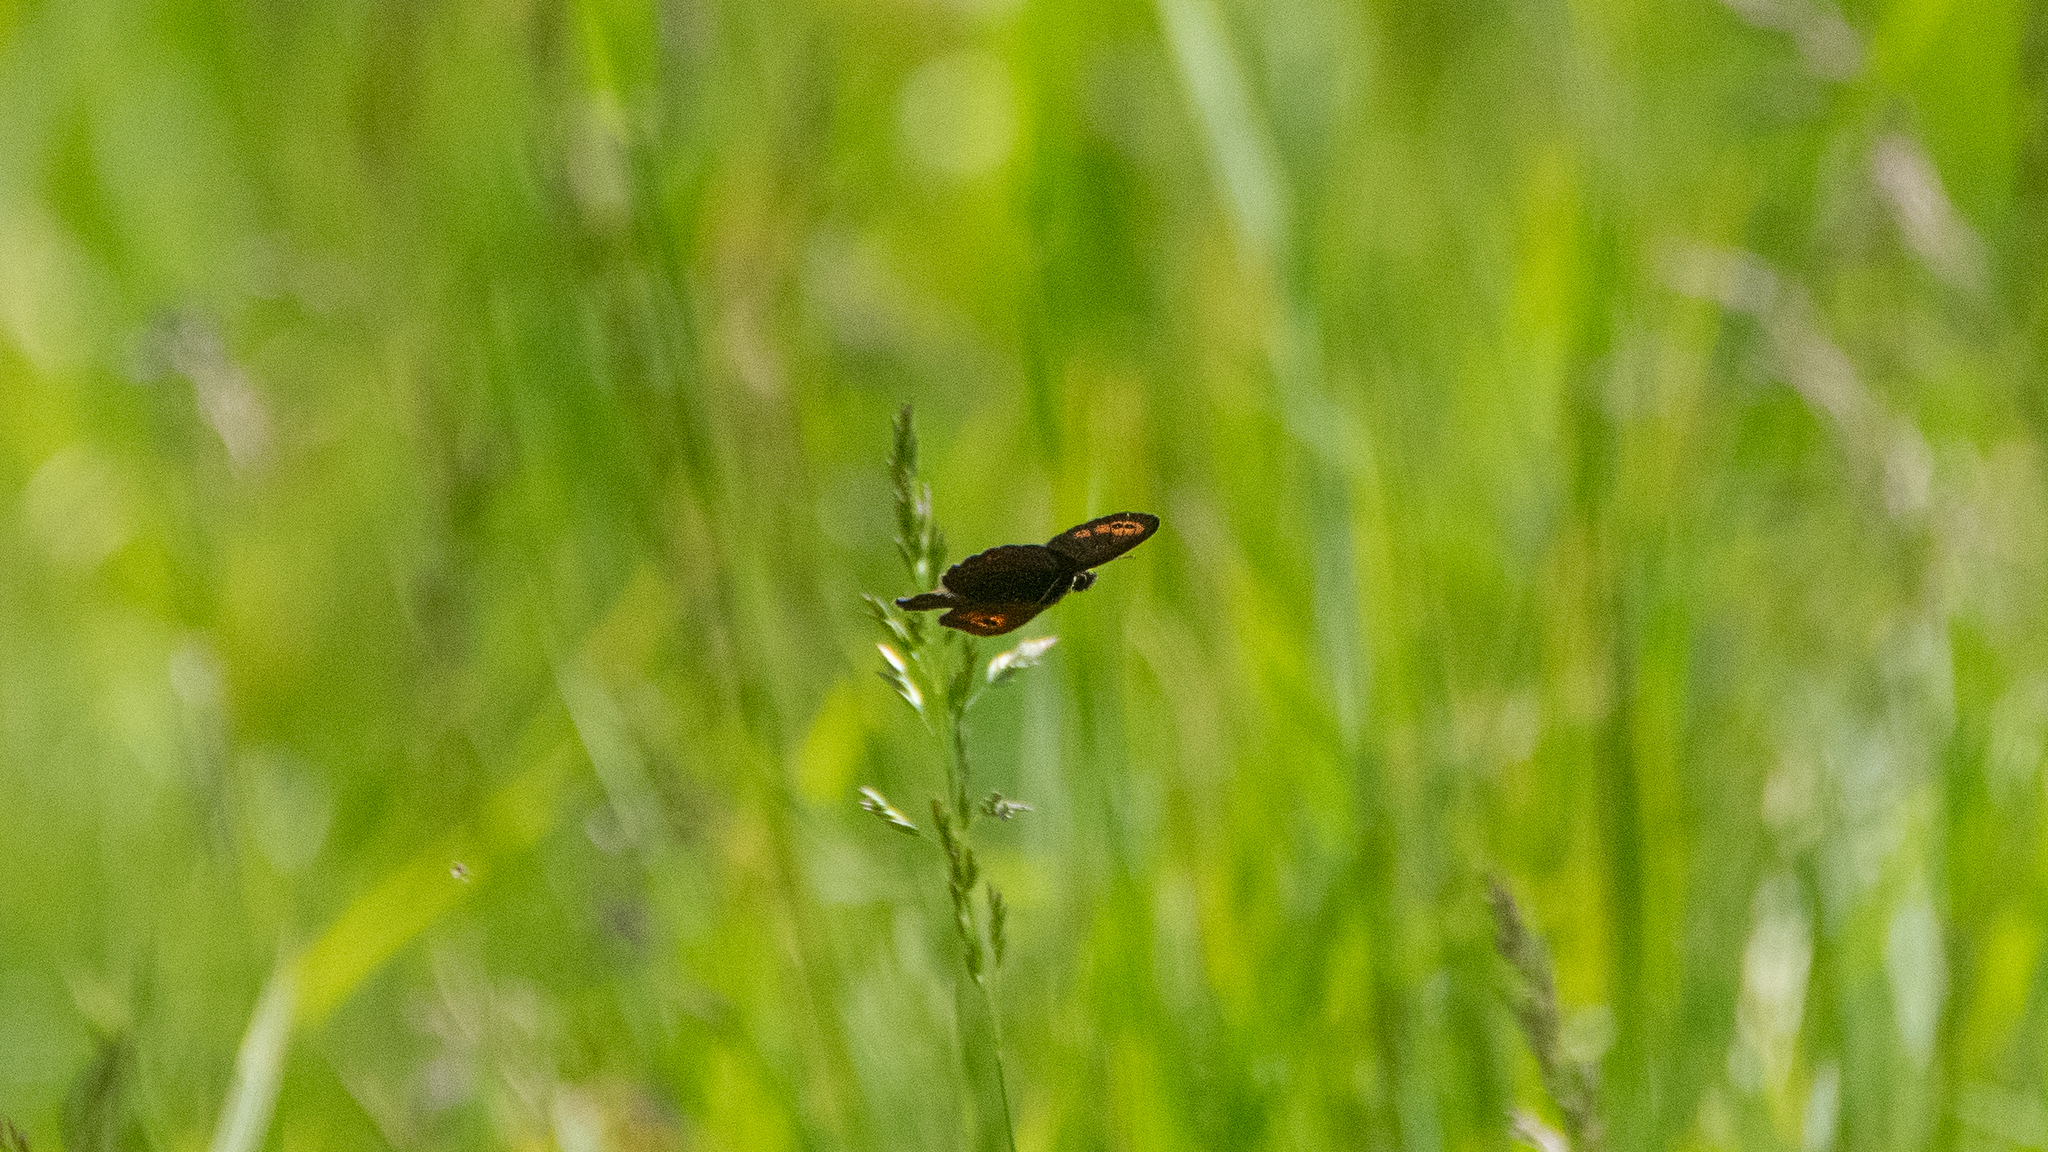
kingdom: Animalia
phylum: Arthropoda
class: Insecta
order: Lepidoptera
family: Nymphalidae
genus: Erebia
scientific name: Erebia epipsodea
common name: Common alpine
